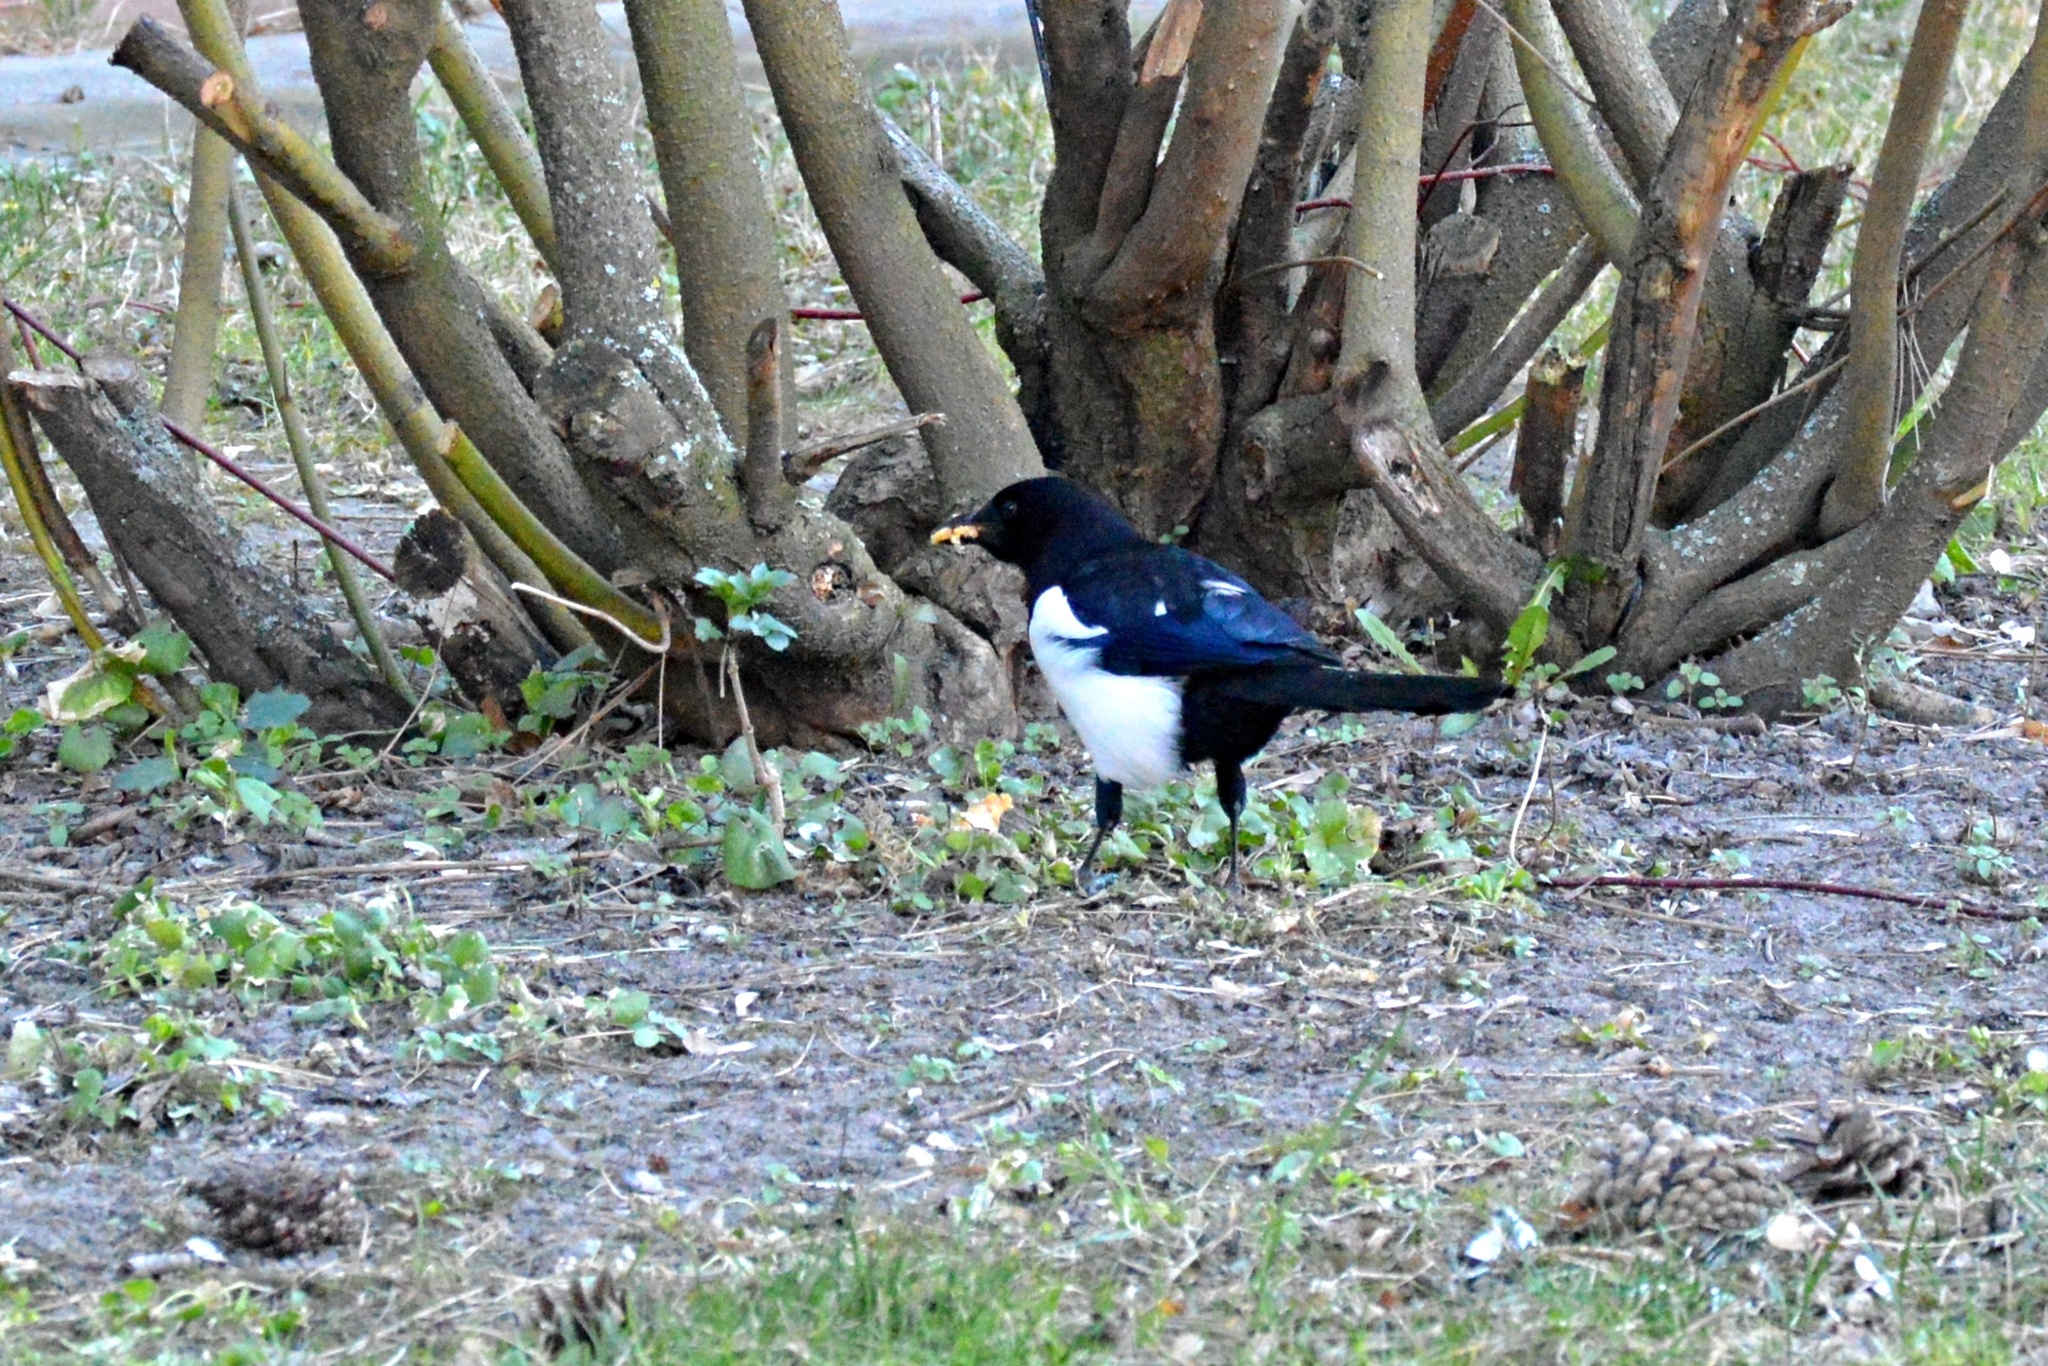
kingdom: Animalia
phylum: Chordata
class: Aves
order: Passeriformes
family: Corvidae
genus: Pica
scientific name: Pica pica
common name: Eurasian magpie
